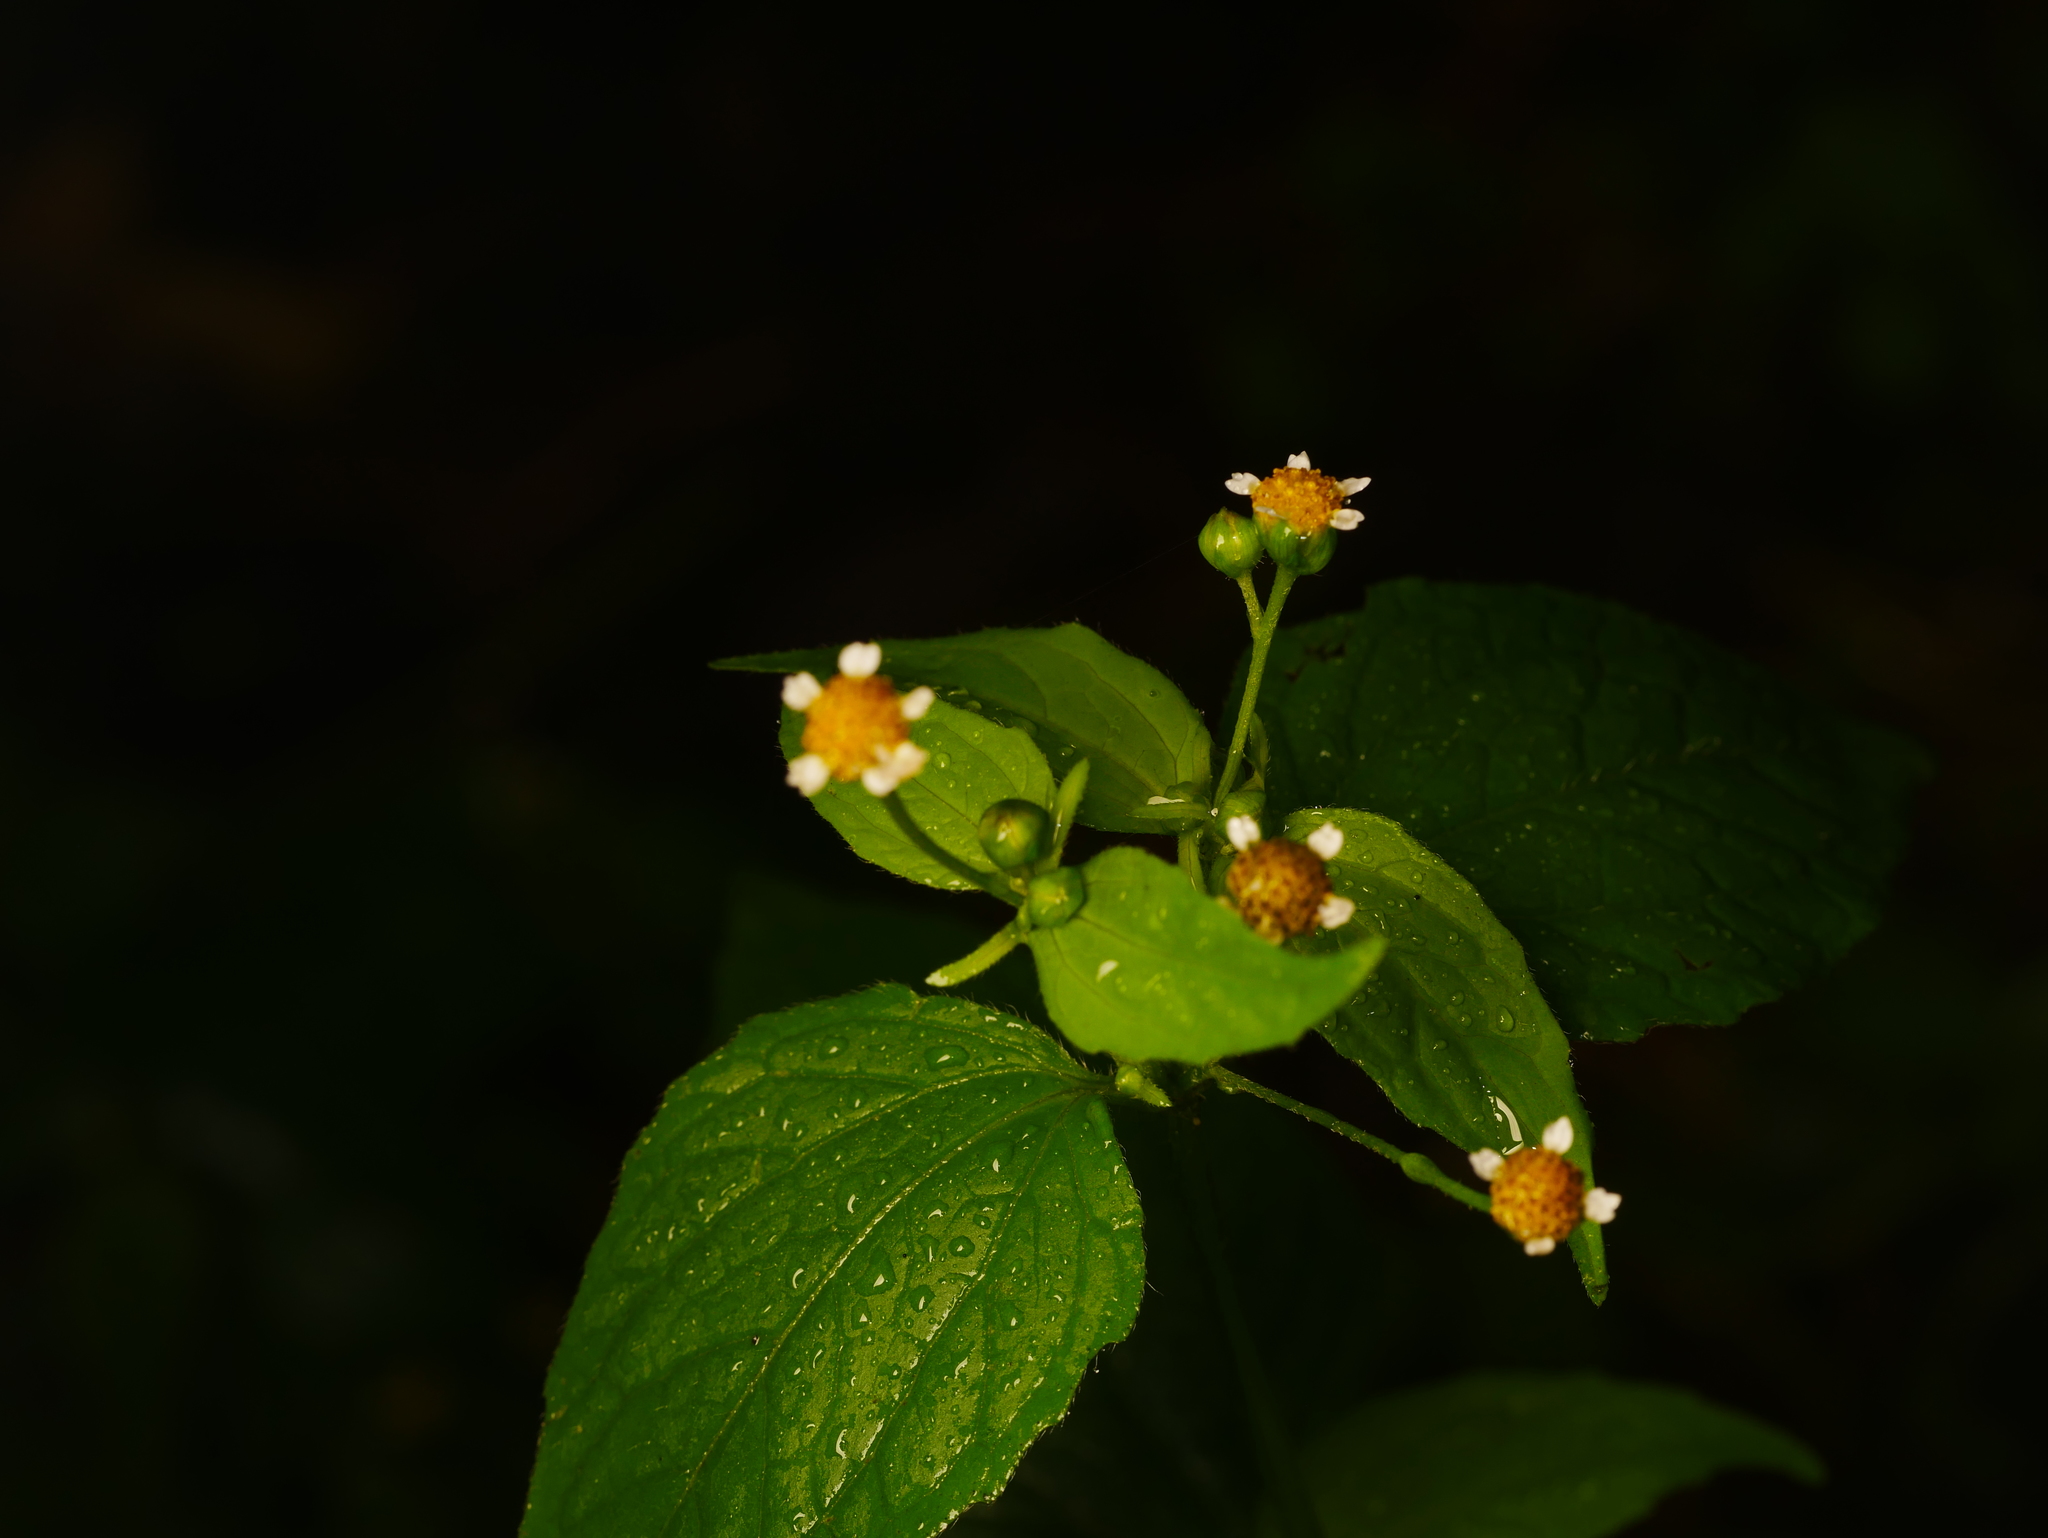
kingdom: Plantae
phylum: Tracheophyta
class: Magnoliopsida
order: Asterales
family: Asteraceae
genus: Galinsoga
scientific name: Galinsoga parviflora
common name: Gallant soldier
